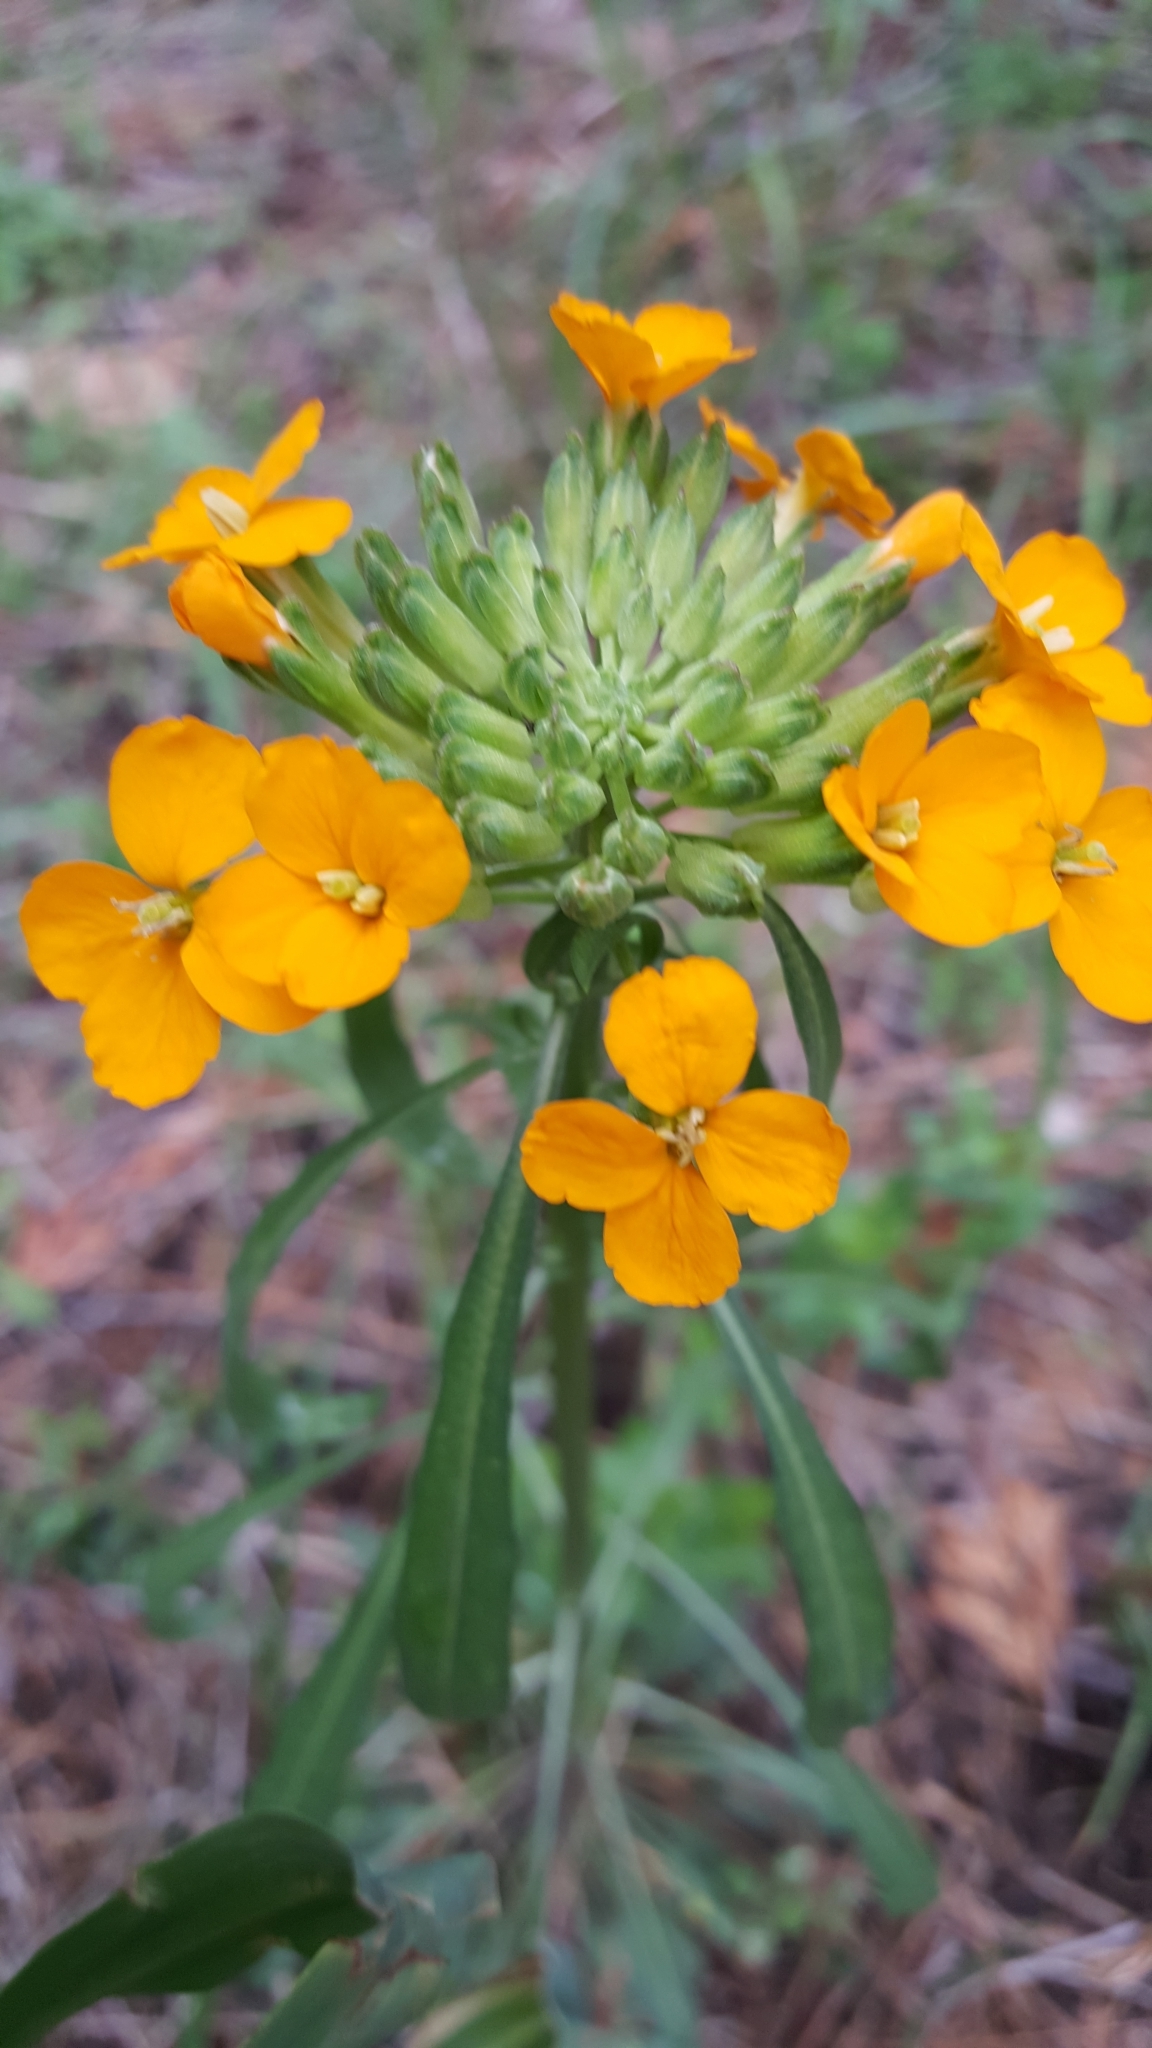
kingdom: Plantae
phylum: Tracheophyta
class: Magnoliopsida
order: Brassicales
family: Brassicaceae
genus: Erysimum
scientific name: Erysimum capitatum
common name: Western wallflower
